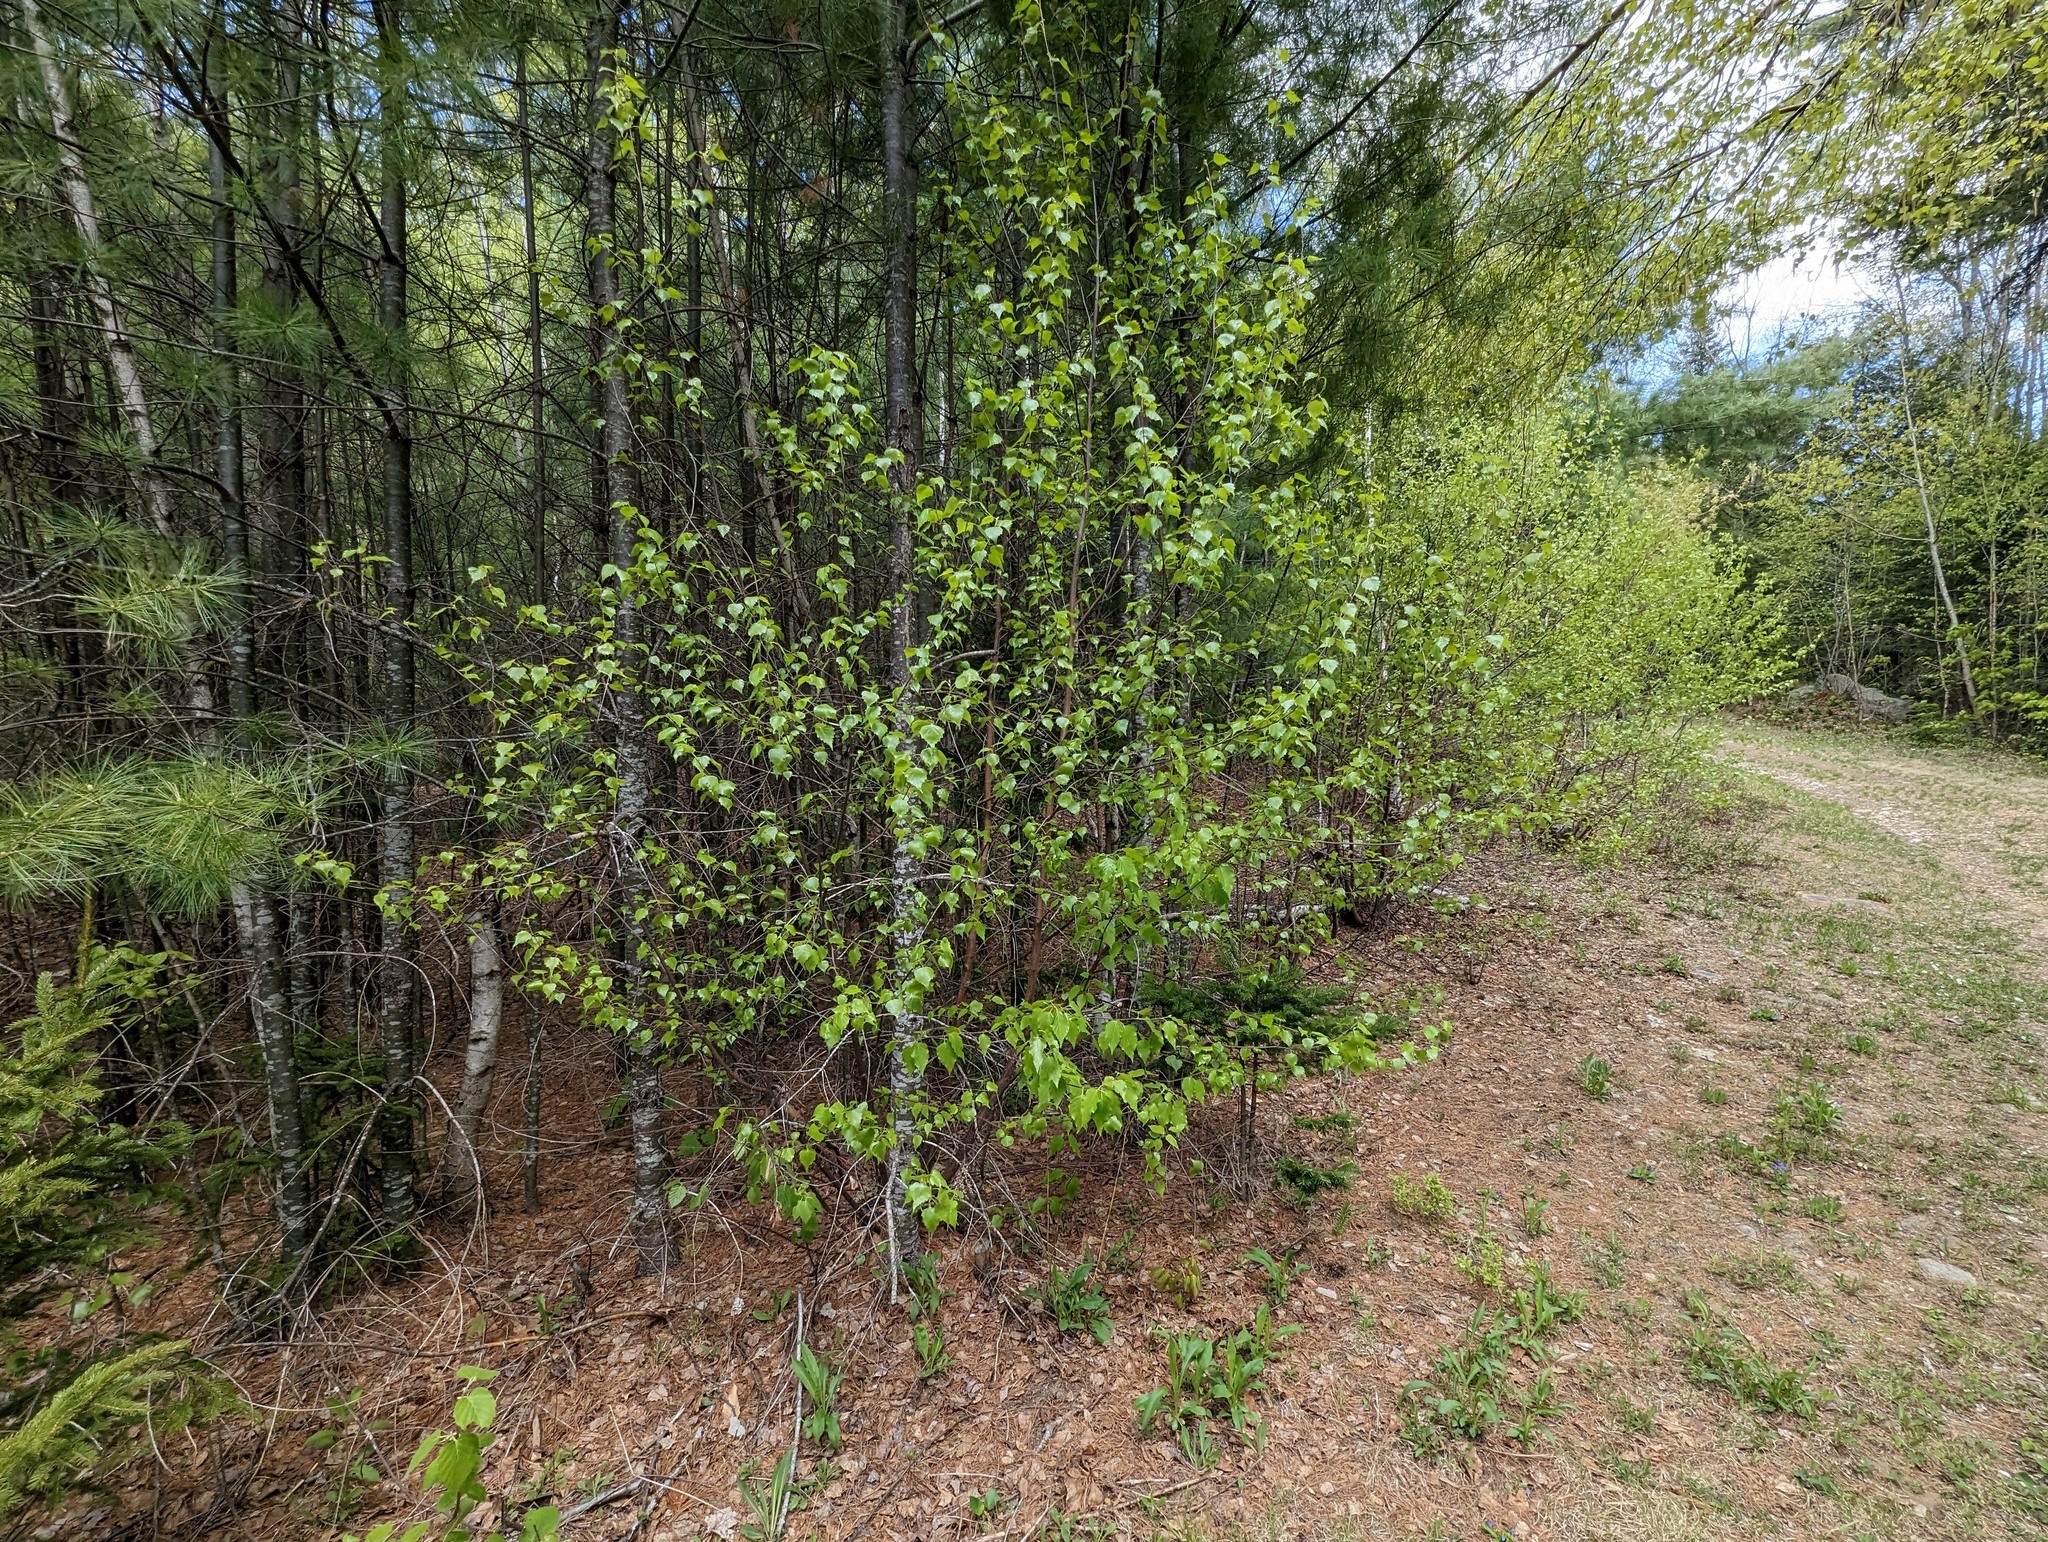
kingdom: Plantae
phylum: Tracheophyta
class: Magnoliopsida
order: Fagales
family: Betulaceae
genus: Betula
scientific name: Betula populifolia
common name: Fire birch
